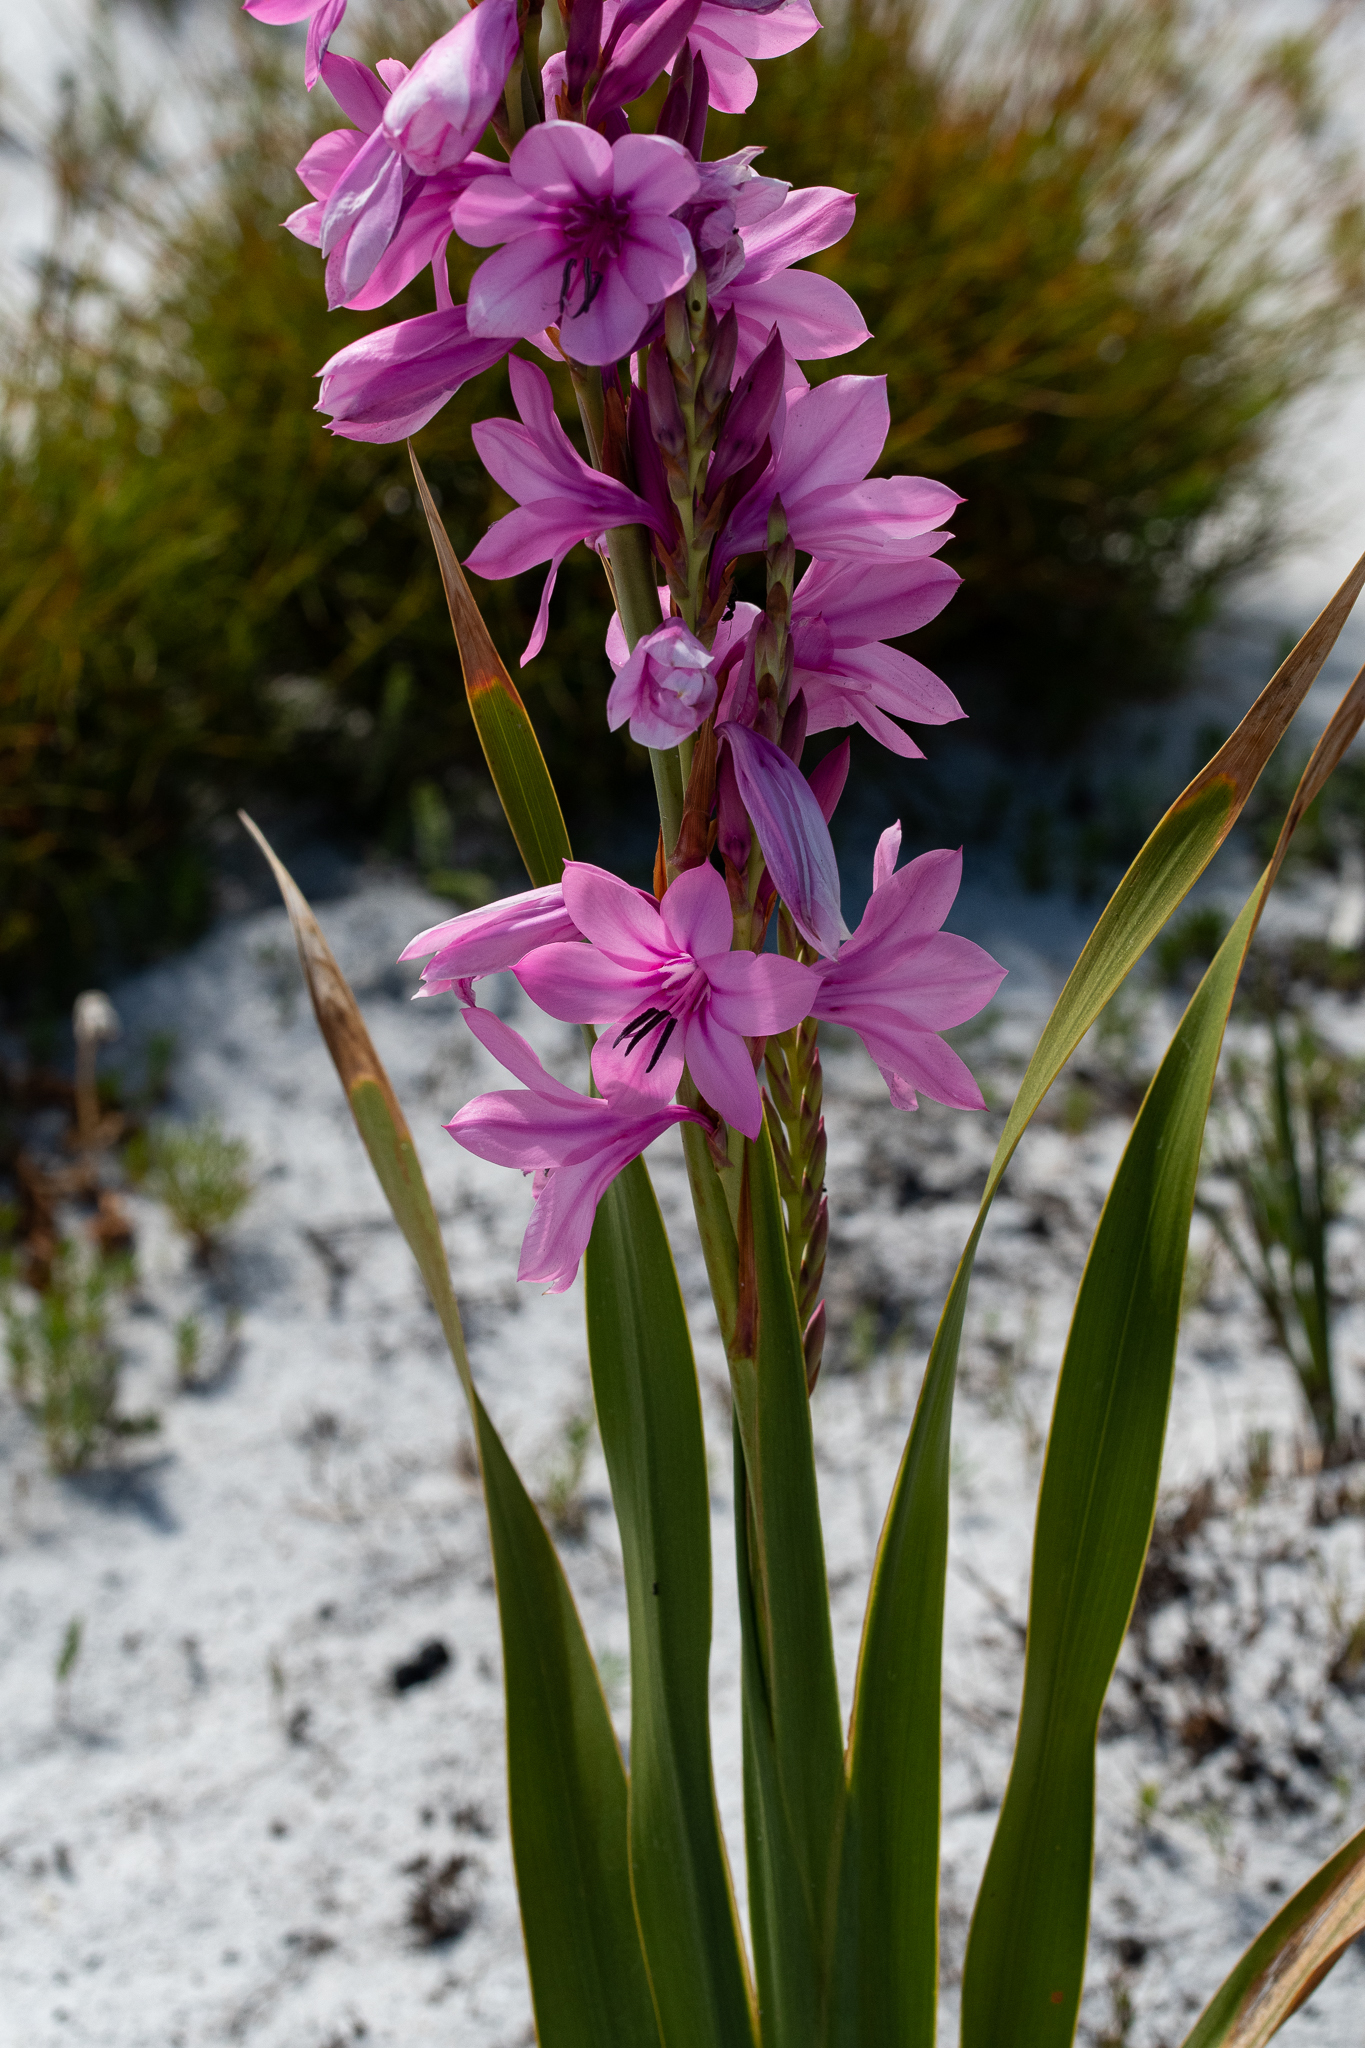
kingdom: Plantae
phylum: Tracheophyta
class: Liliopsida
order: Asparagales
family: Iridaceae
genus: Watsonia
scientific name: Watsonia borbonica
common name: Bugle-lily
